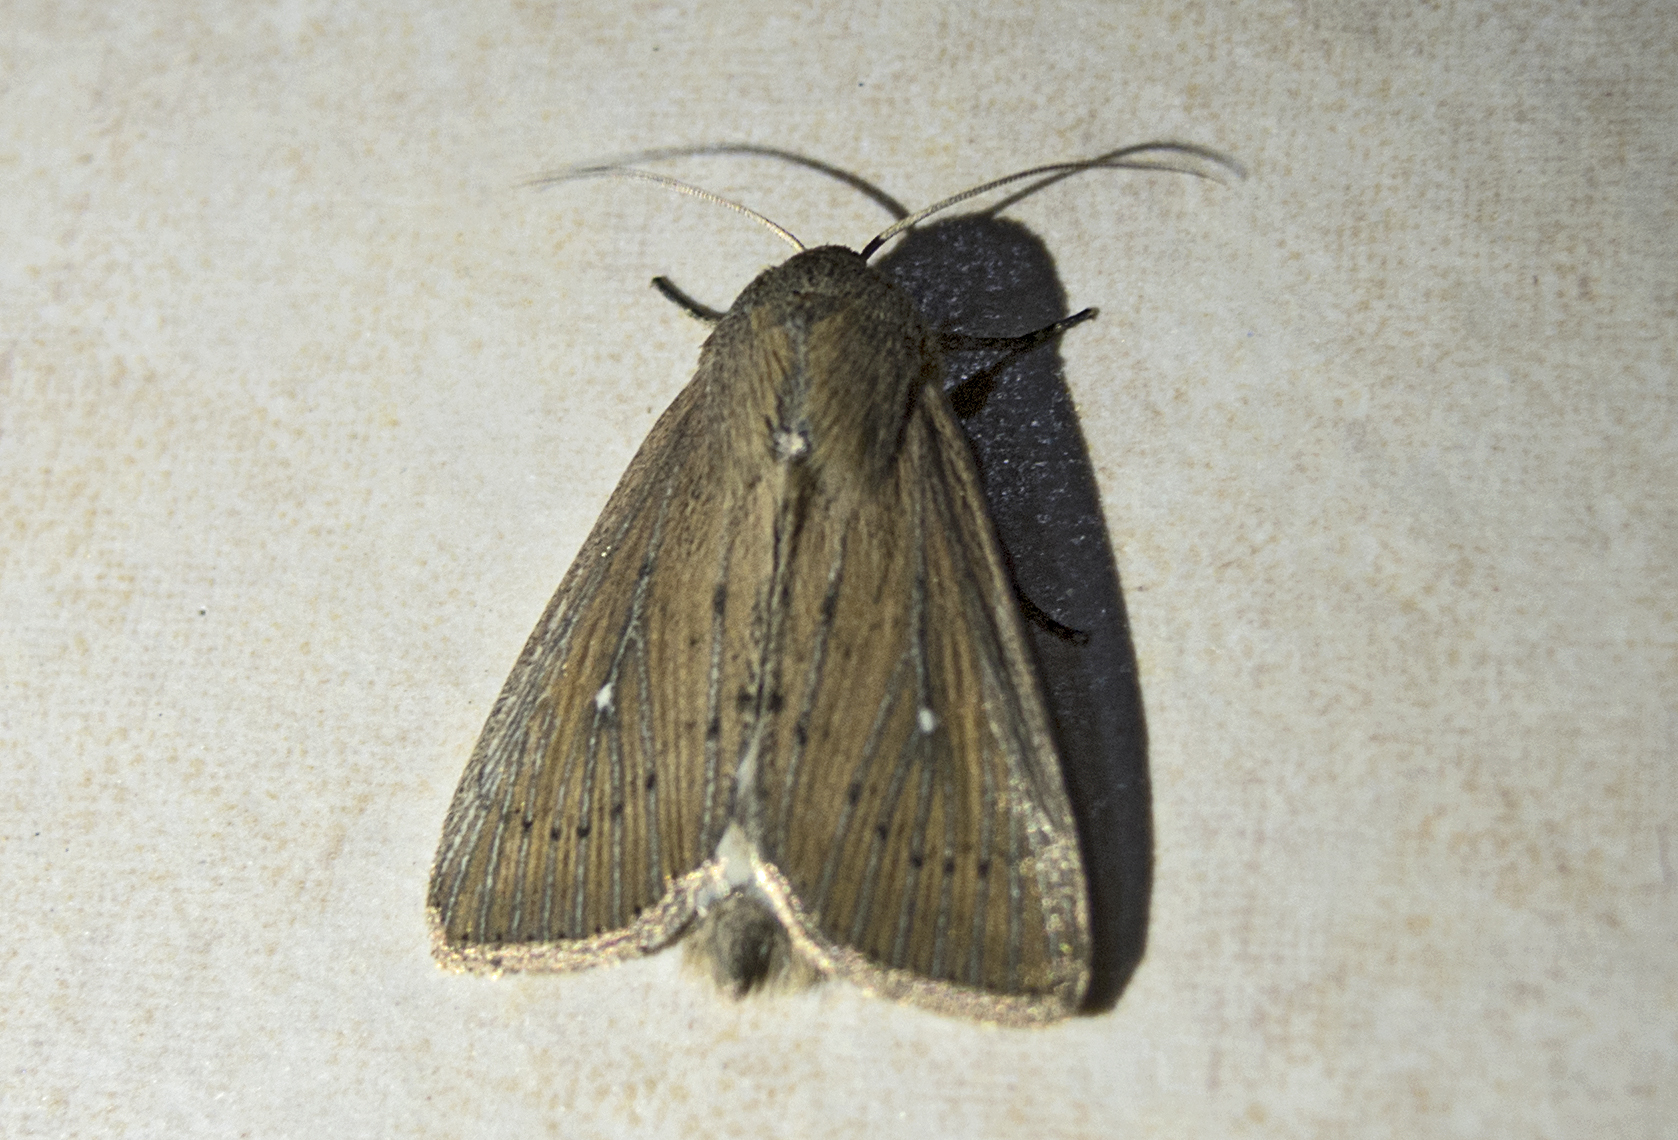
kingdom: Animalia
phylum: Arthropoda
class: Insecta
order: Lepidoptera
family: Noctuidae
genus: Leucania
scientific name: Leucania obsoleta
